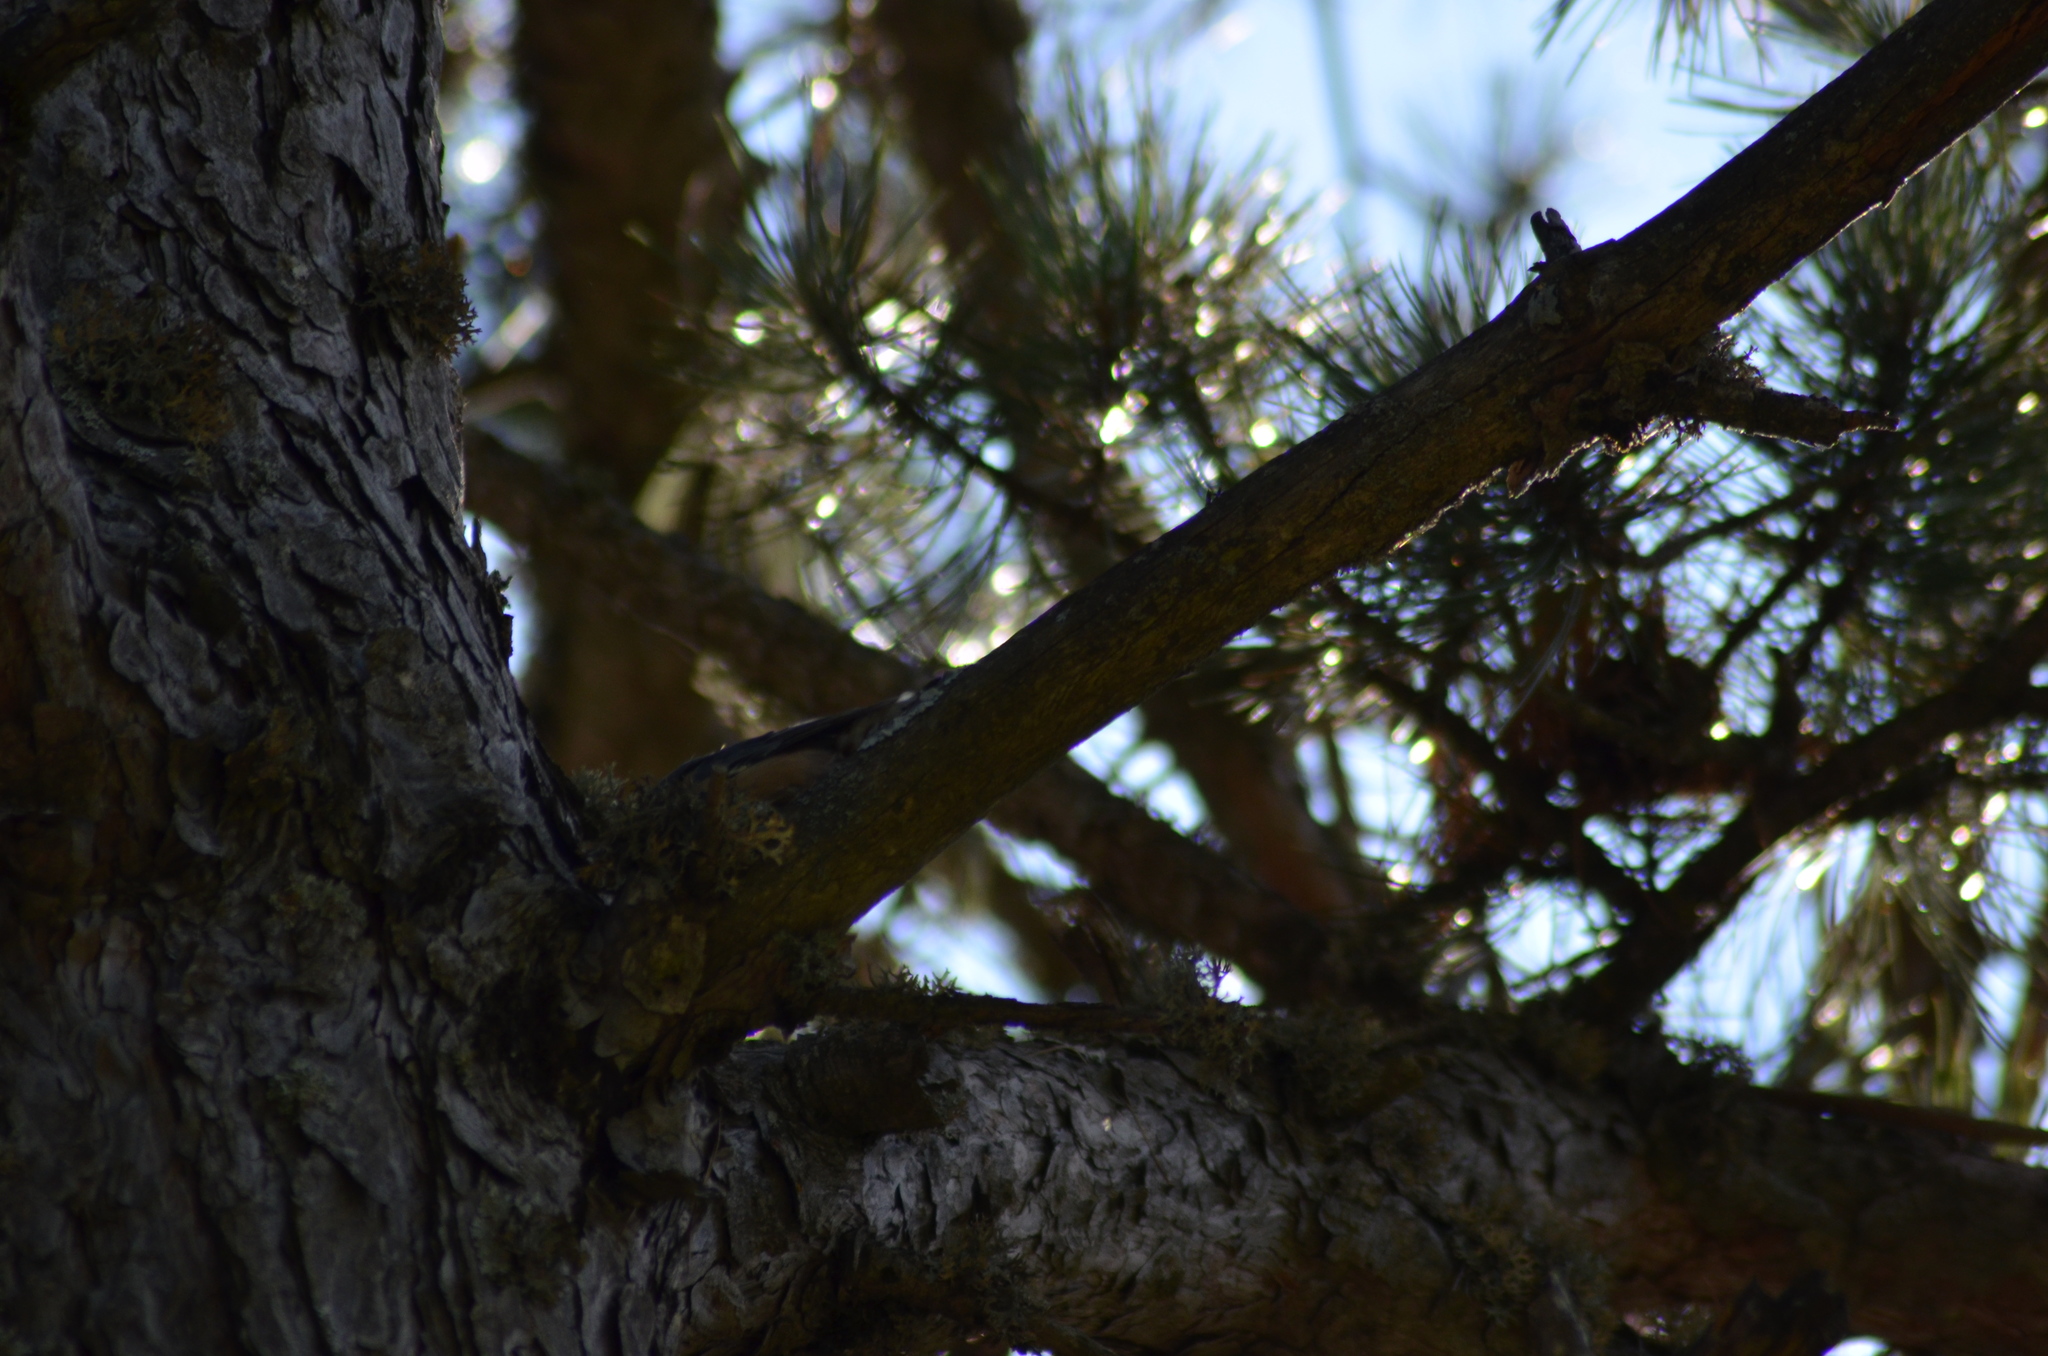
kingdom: Animalia
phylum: Chordata
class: Aves
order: Passeriformes
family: Sittidae
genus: Sitta
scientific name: Sitta europaea
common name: Eurasian nuthatch
